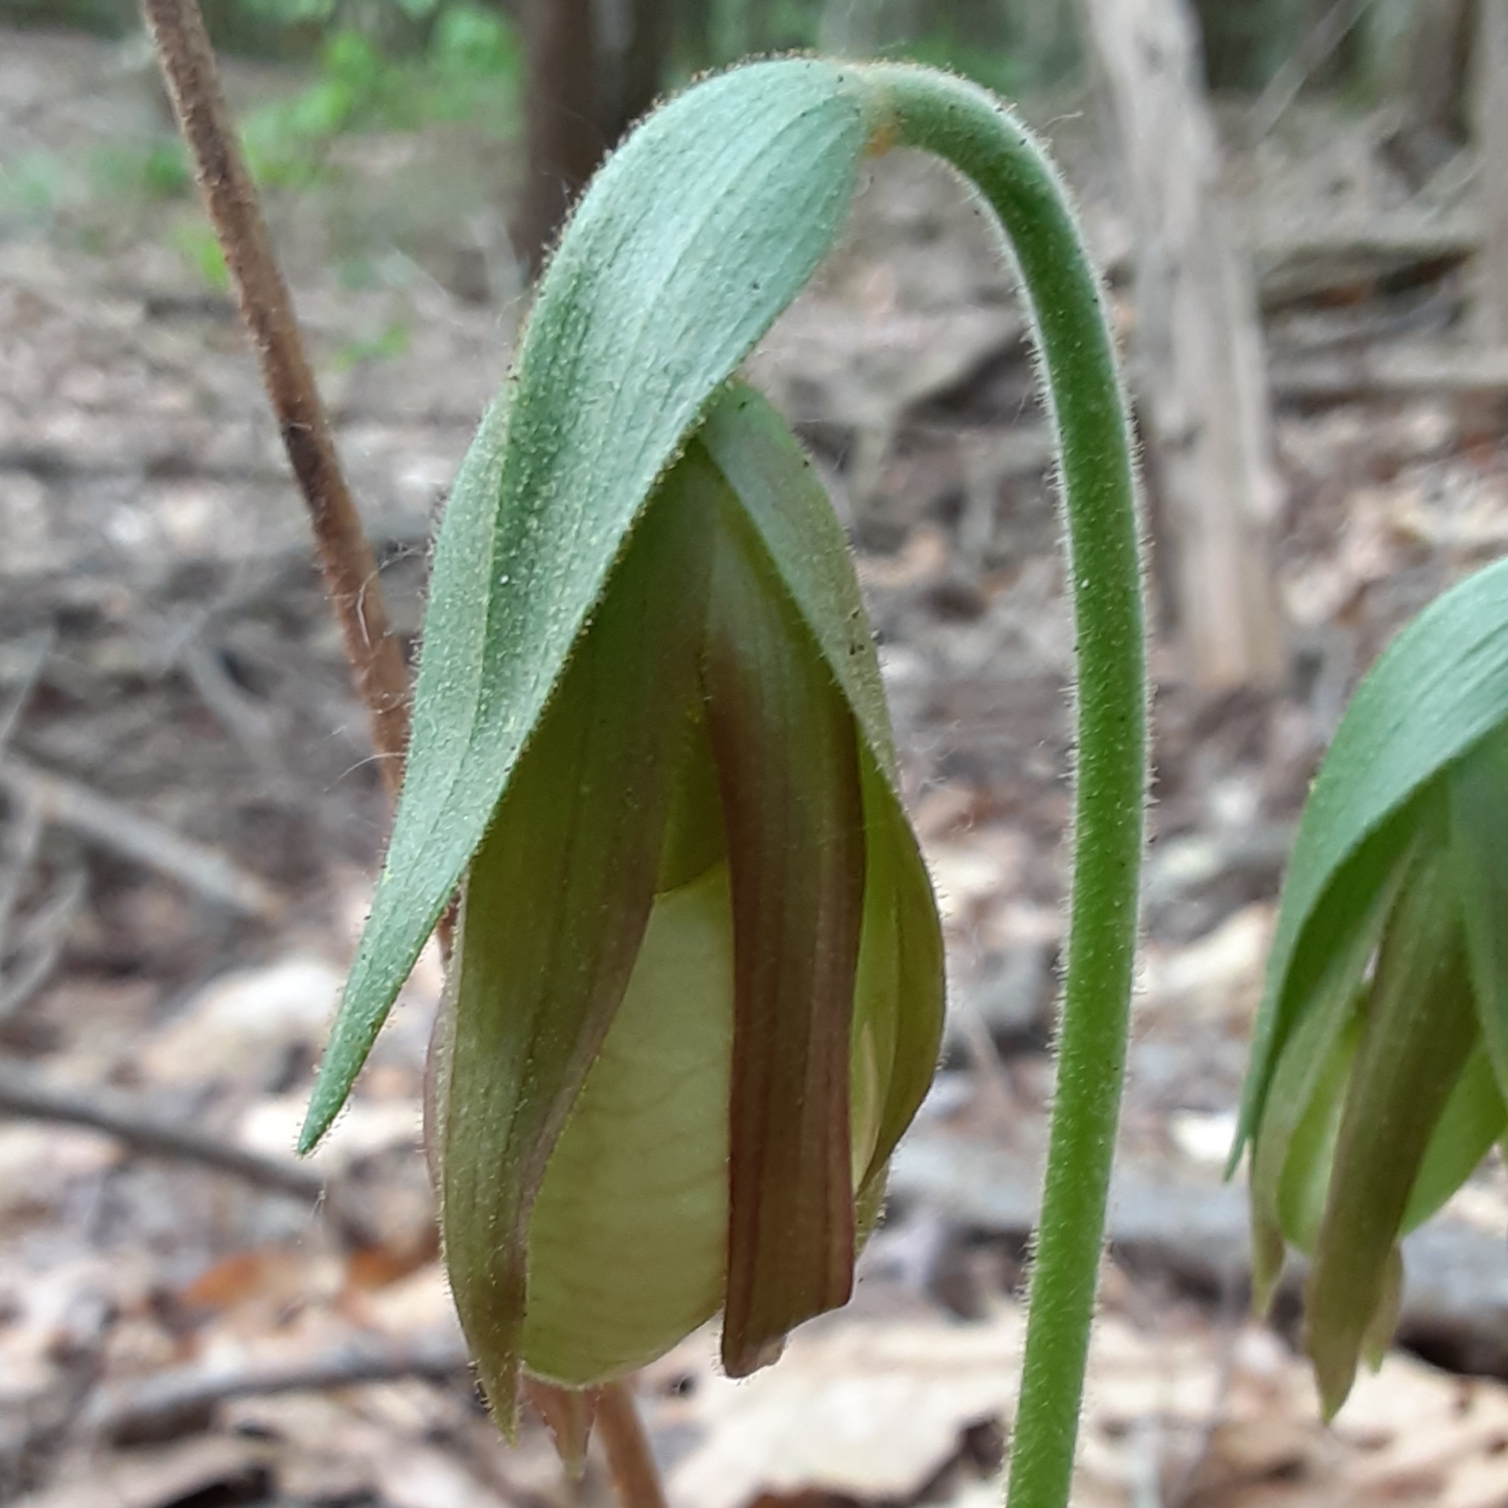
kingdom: Plantae
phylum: Tracheophyta
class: Liliopsida
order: Asparagales
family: Orchidaceae
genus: Cypripedium
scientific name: Cypripedium acaule
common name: Pink lady's-slipper
